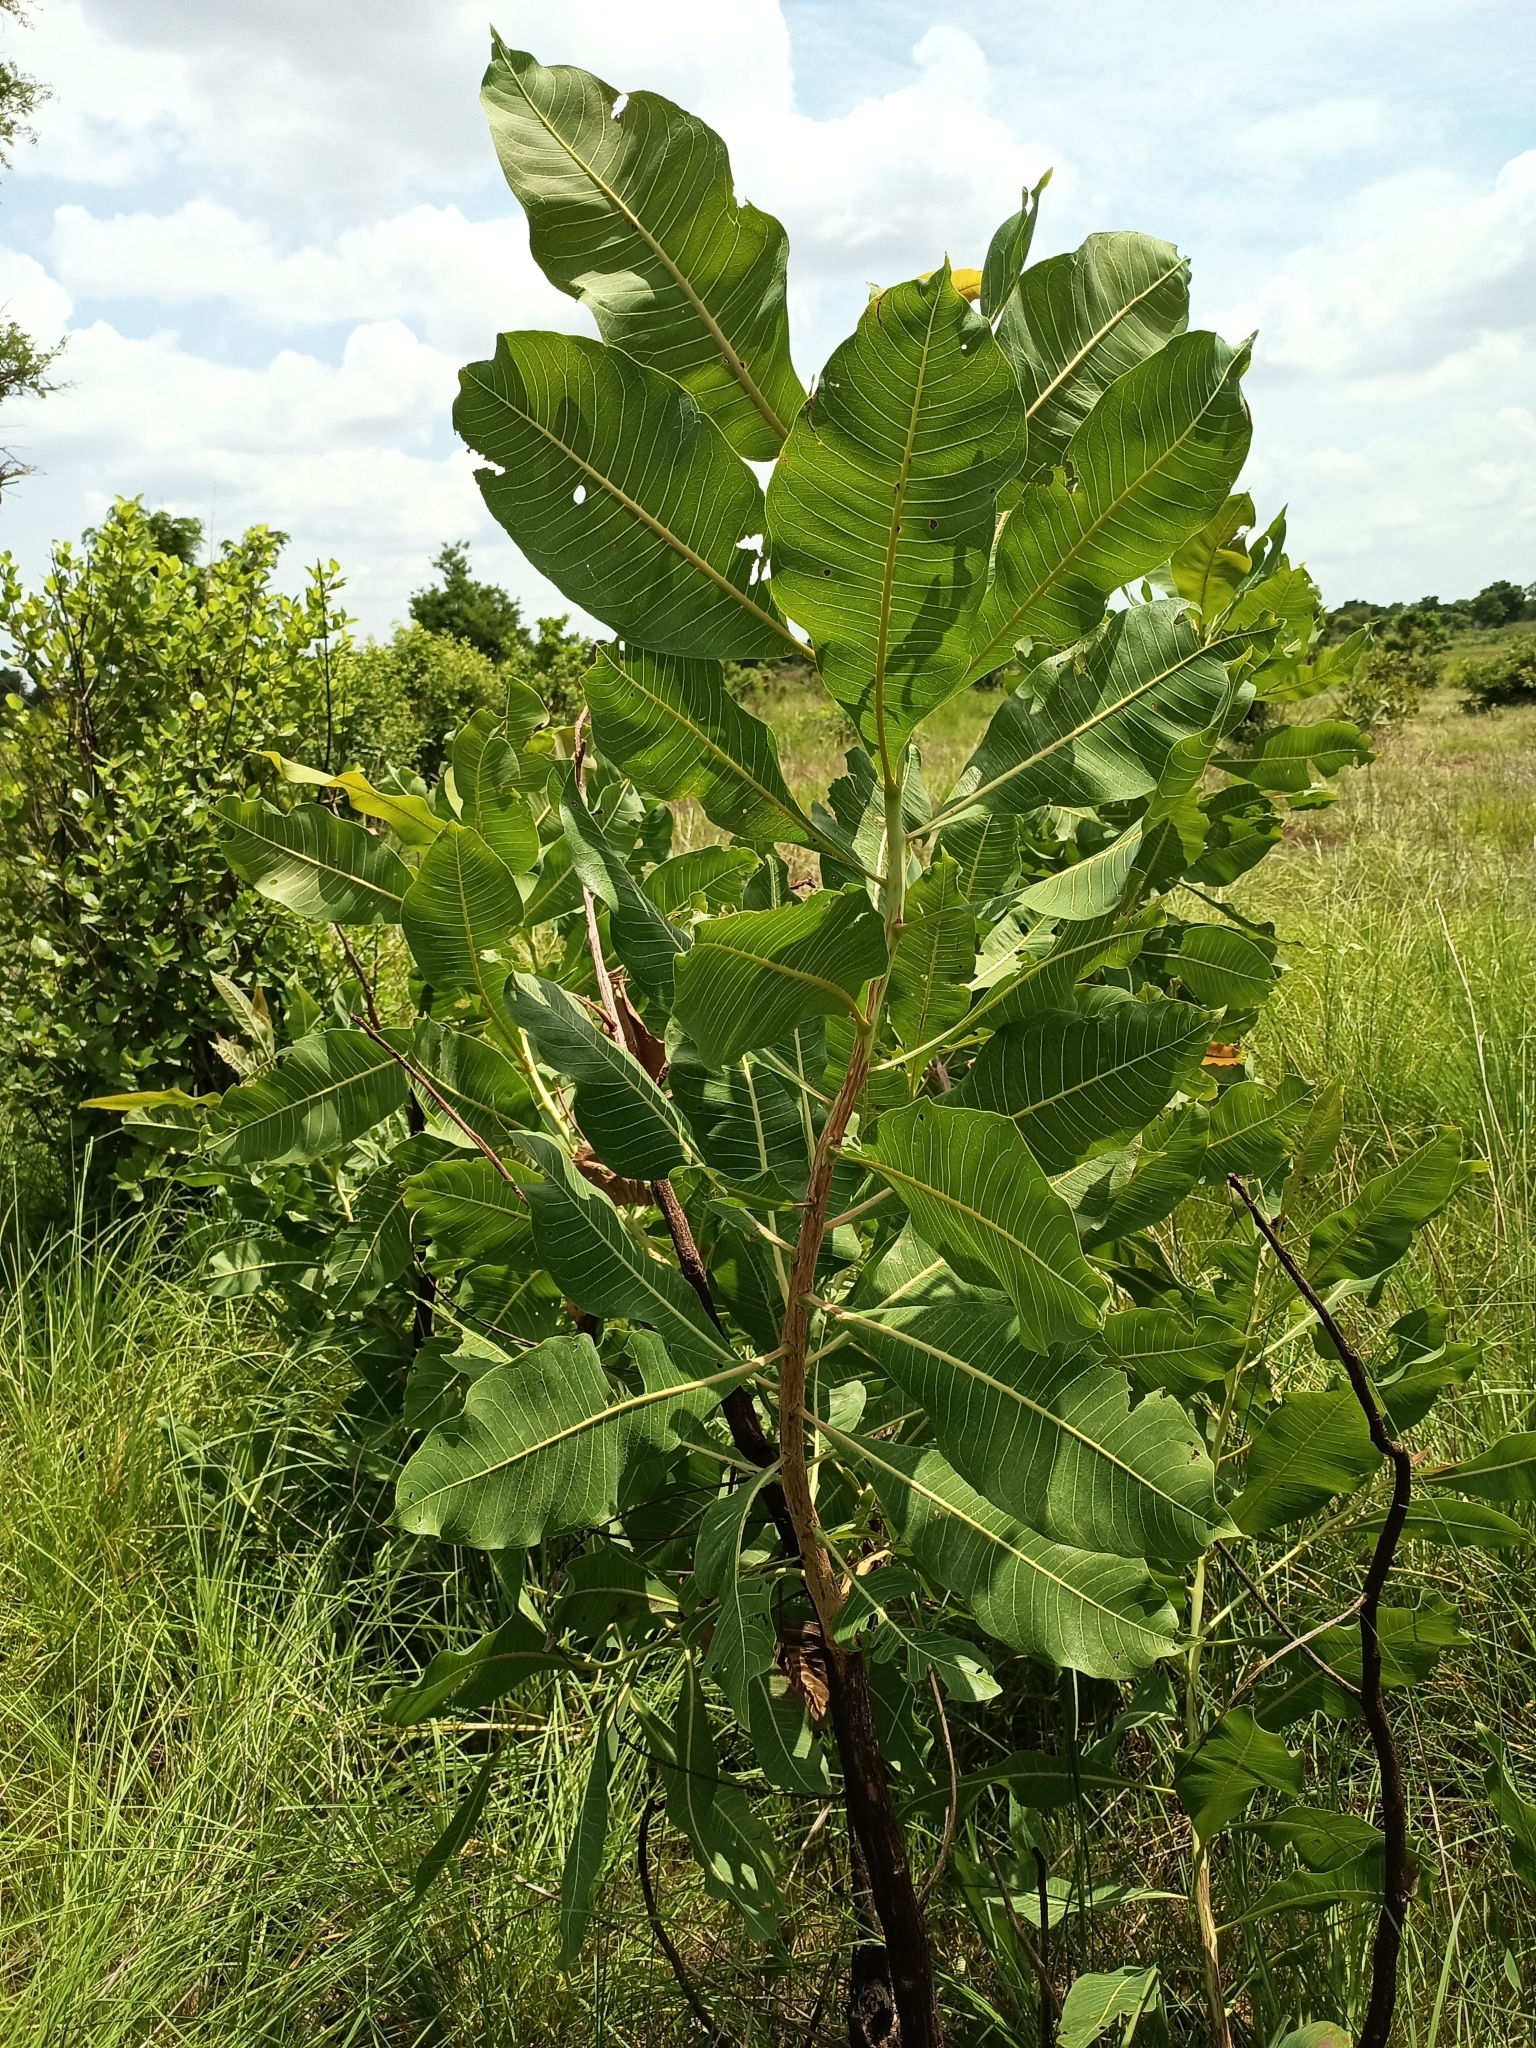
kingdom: Plantae
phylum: Tracheophyta
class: Magnoliopsida
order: Ericales
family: Sapotaceae
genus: Vitellaria
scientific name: Vitellaria paradoxa
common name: Shea butter tree
